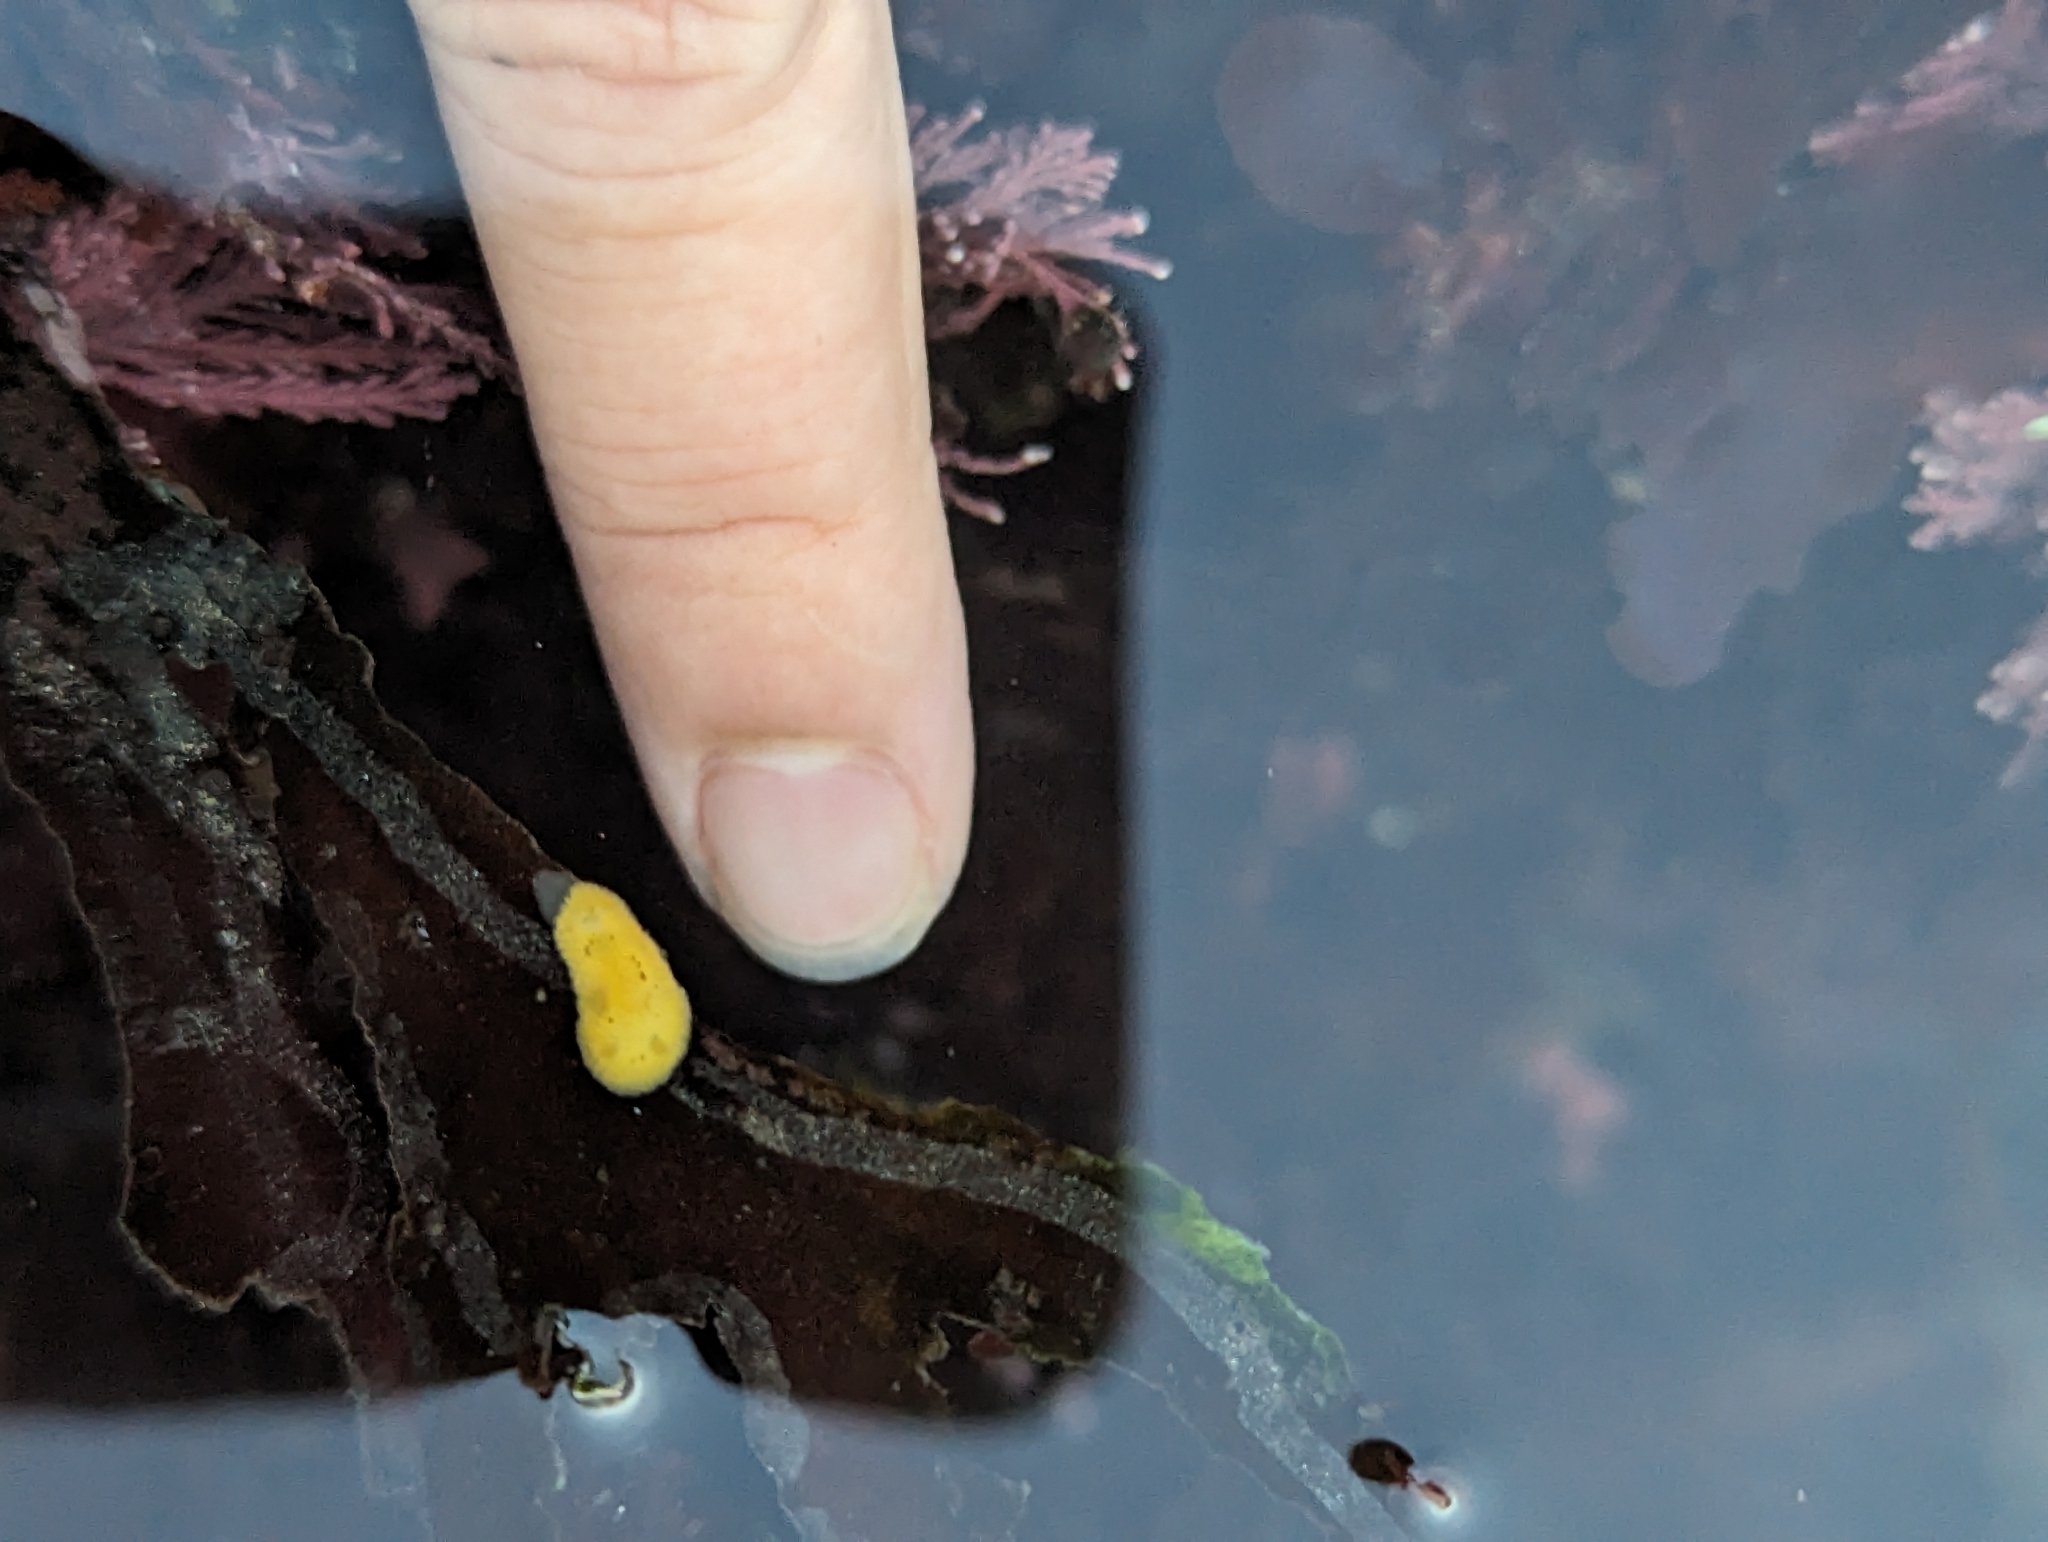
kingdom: Animalia
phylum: Mollusca
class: Gastropoda
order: Nudibranchia
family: Dorididae
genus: Doris
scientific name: Doris montereyensis
